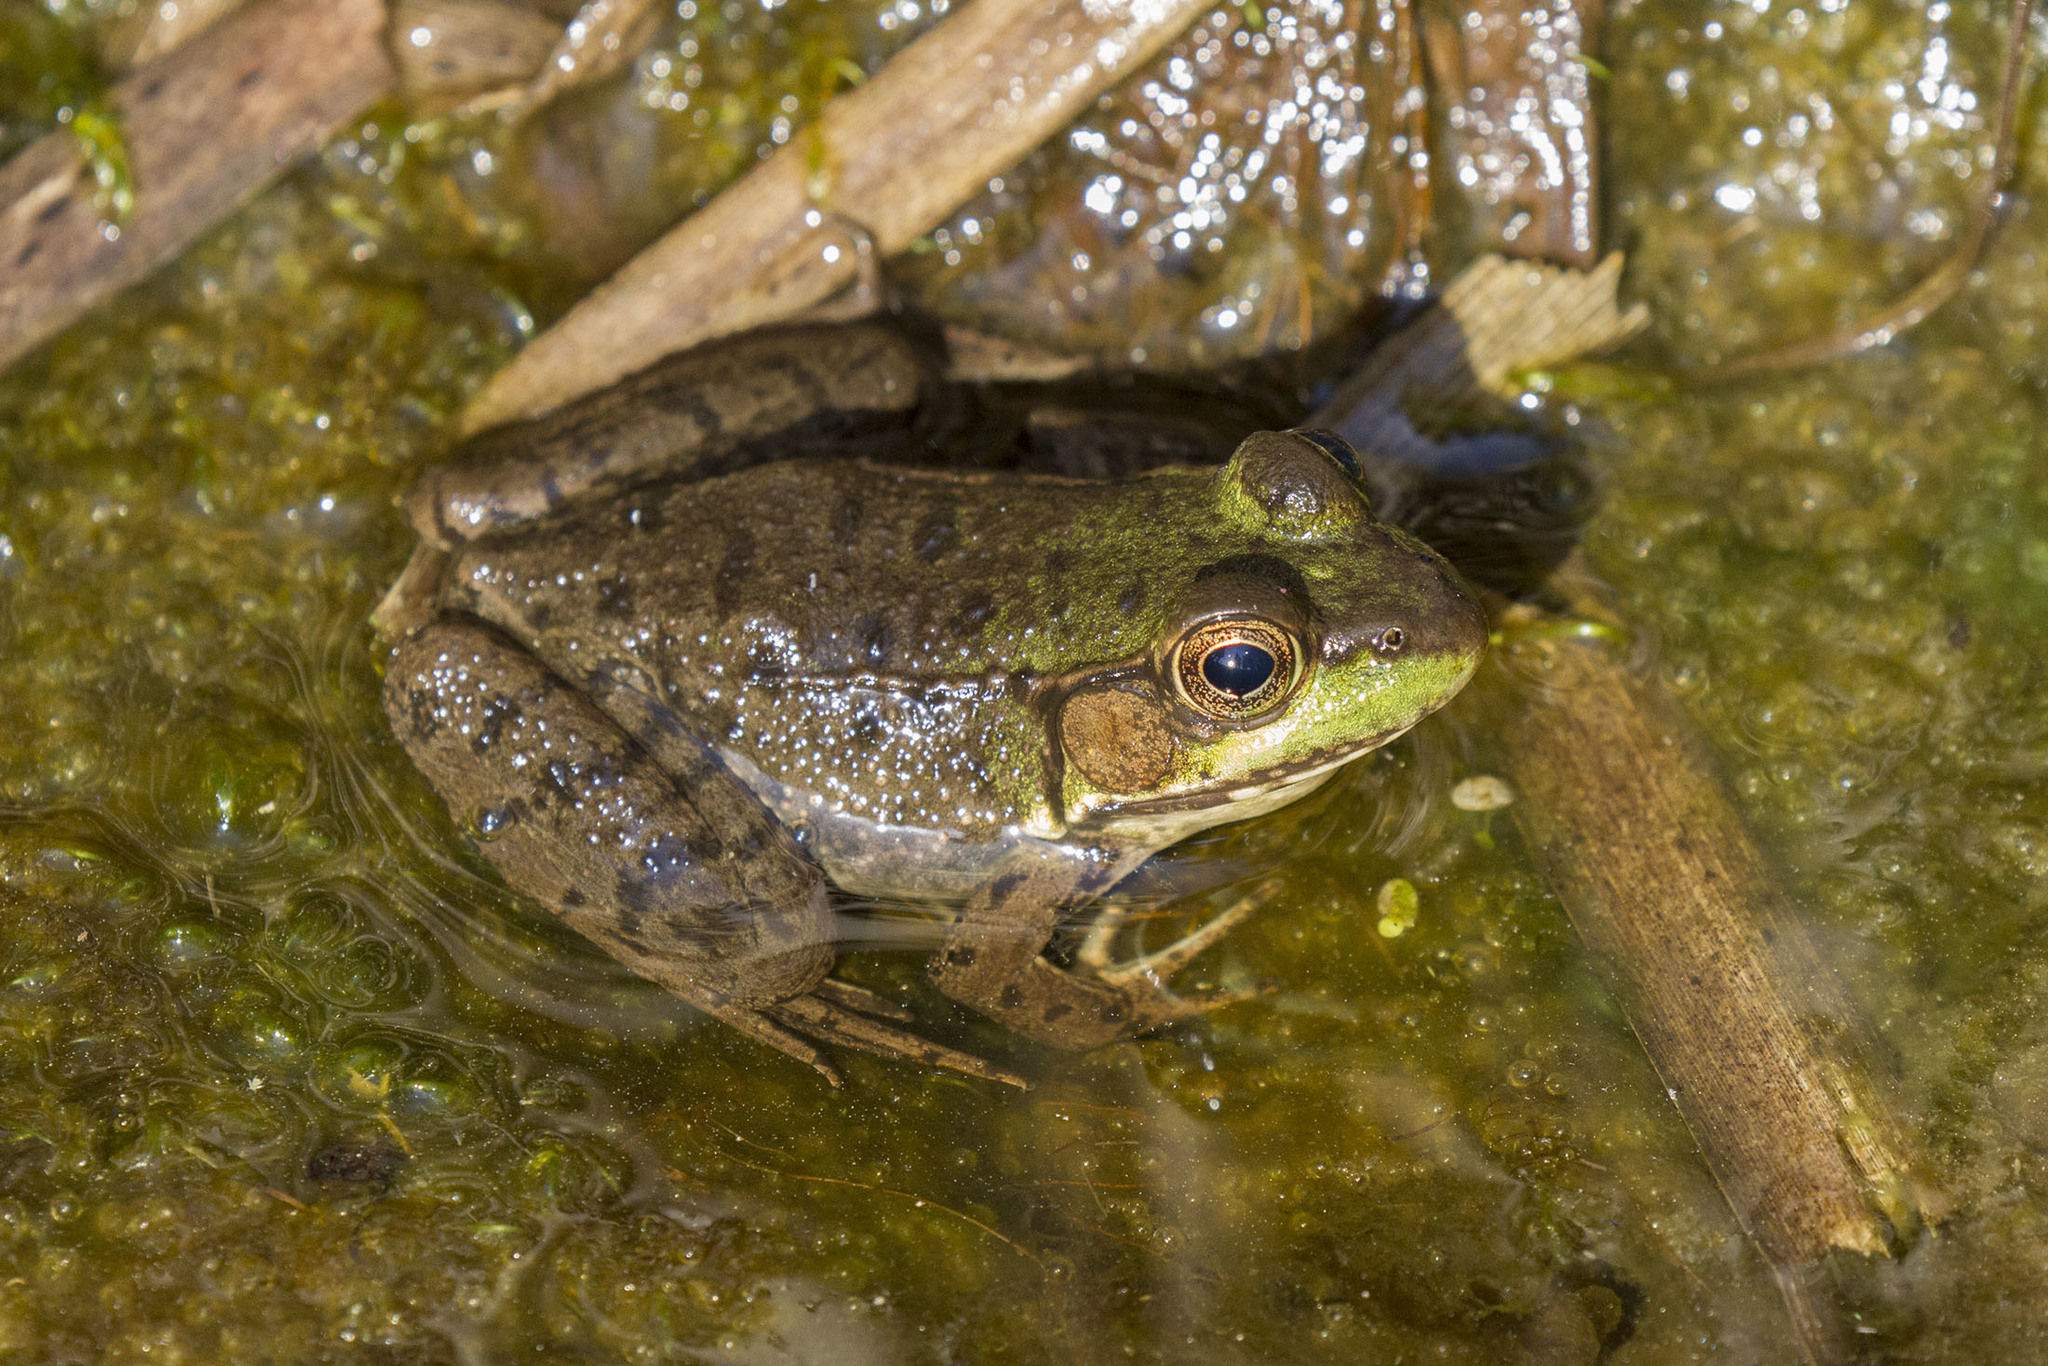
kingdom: Animalia
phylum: Chordata
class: Amphibia
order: Anura
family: Ranidae
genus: Lithobates
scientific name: Lithobates clamitans
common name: Green frog
